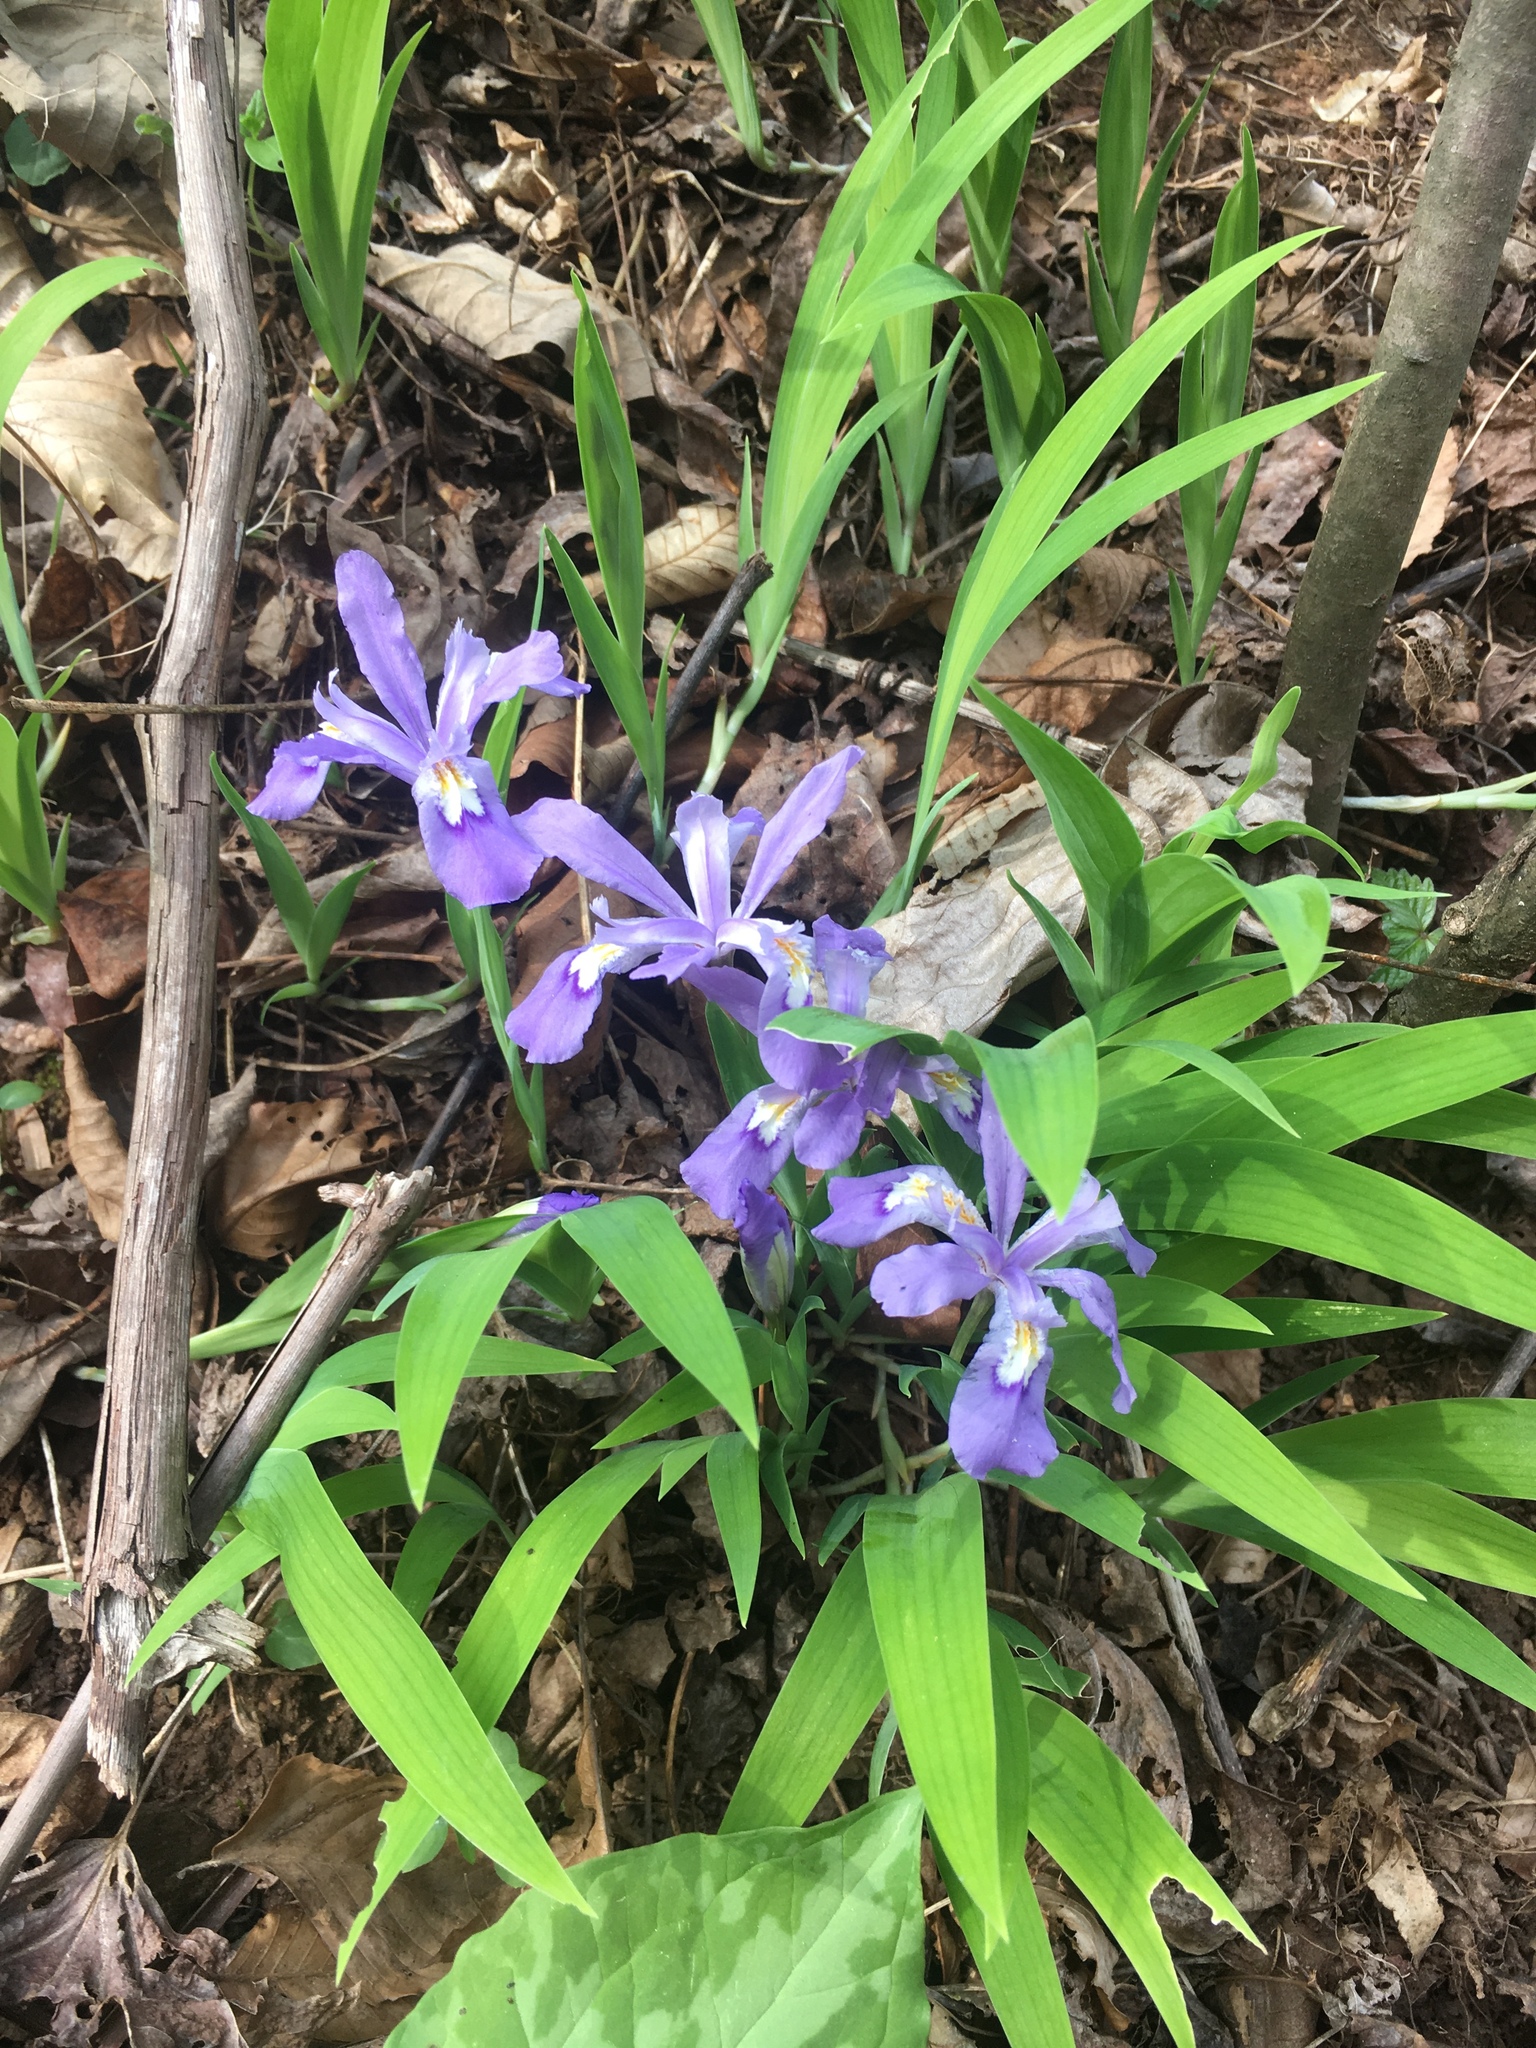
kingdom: Plantae
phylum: Tracheophyta
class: Liliopsida
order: Asparagales
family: Iridaceae
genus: Iris
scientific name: Iris cristata
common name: Crested iris
